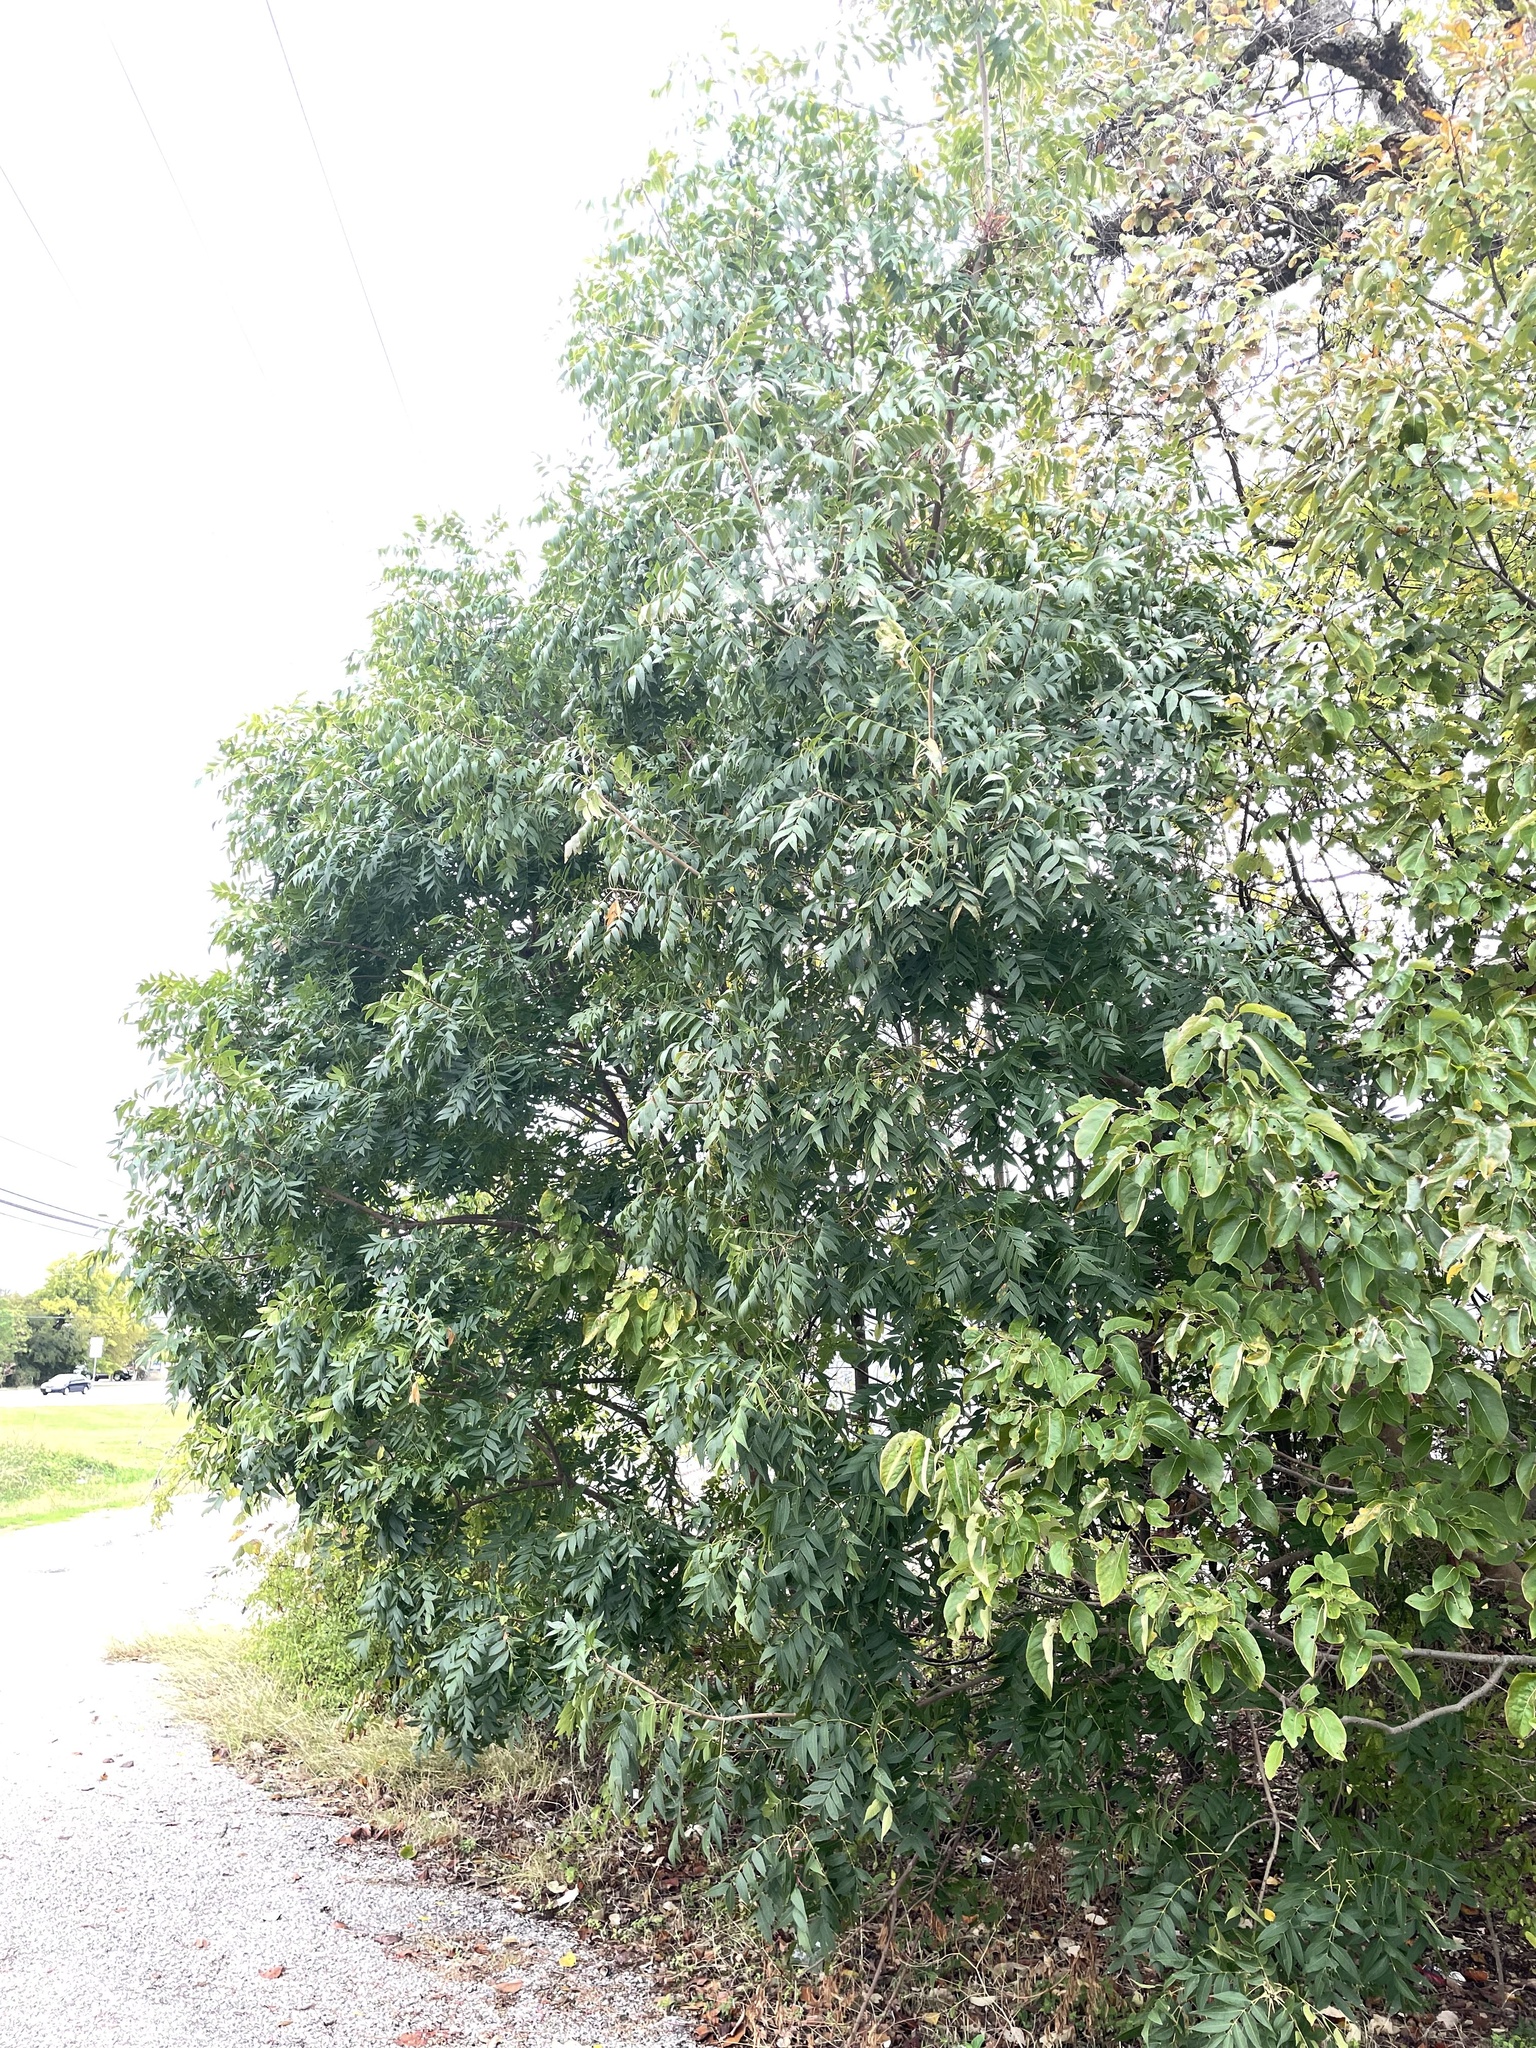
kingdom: Plantae
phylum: Tracheophyta
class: Magnoliopsida
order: Sapindales
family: Anacardiaceae
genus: Pistacia
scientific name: Pistacia chinensis
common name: Chinese pistache
